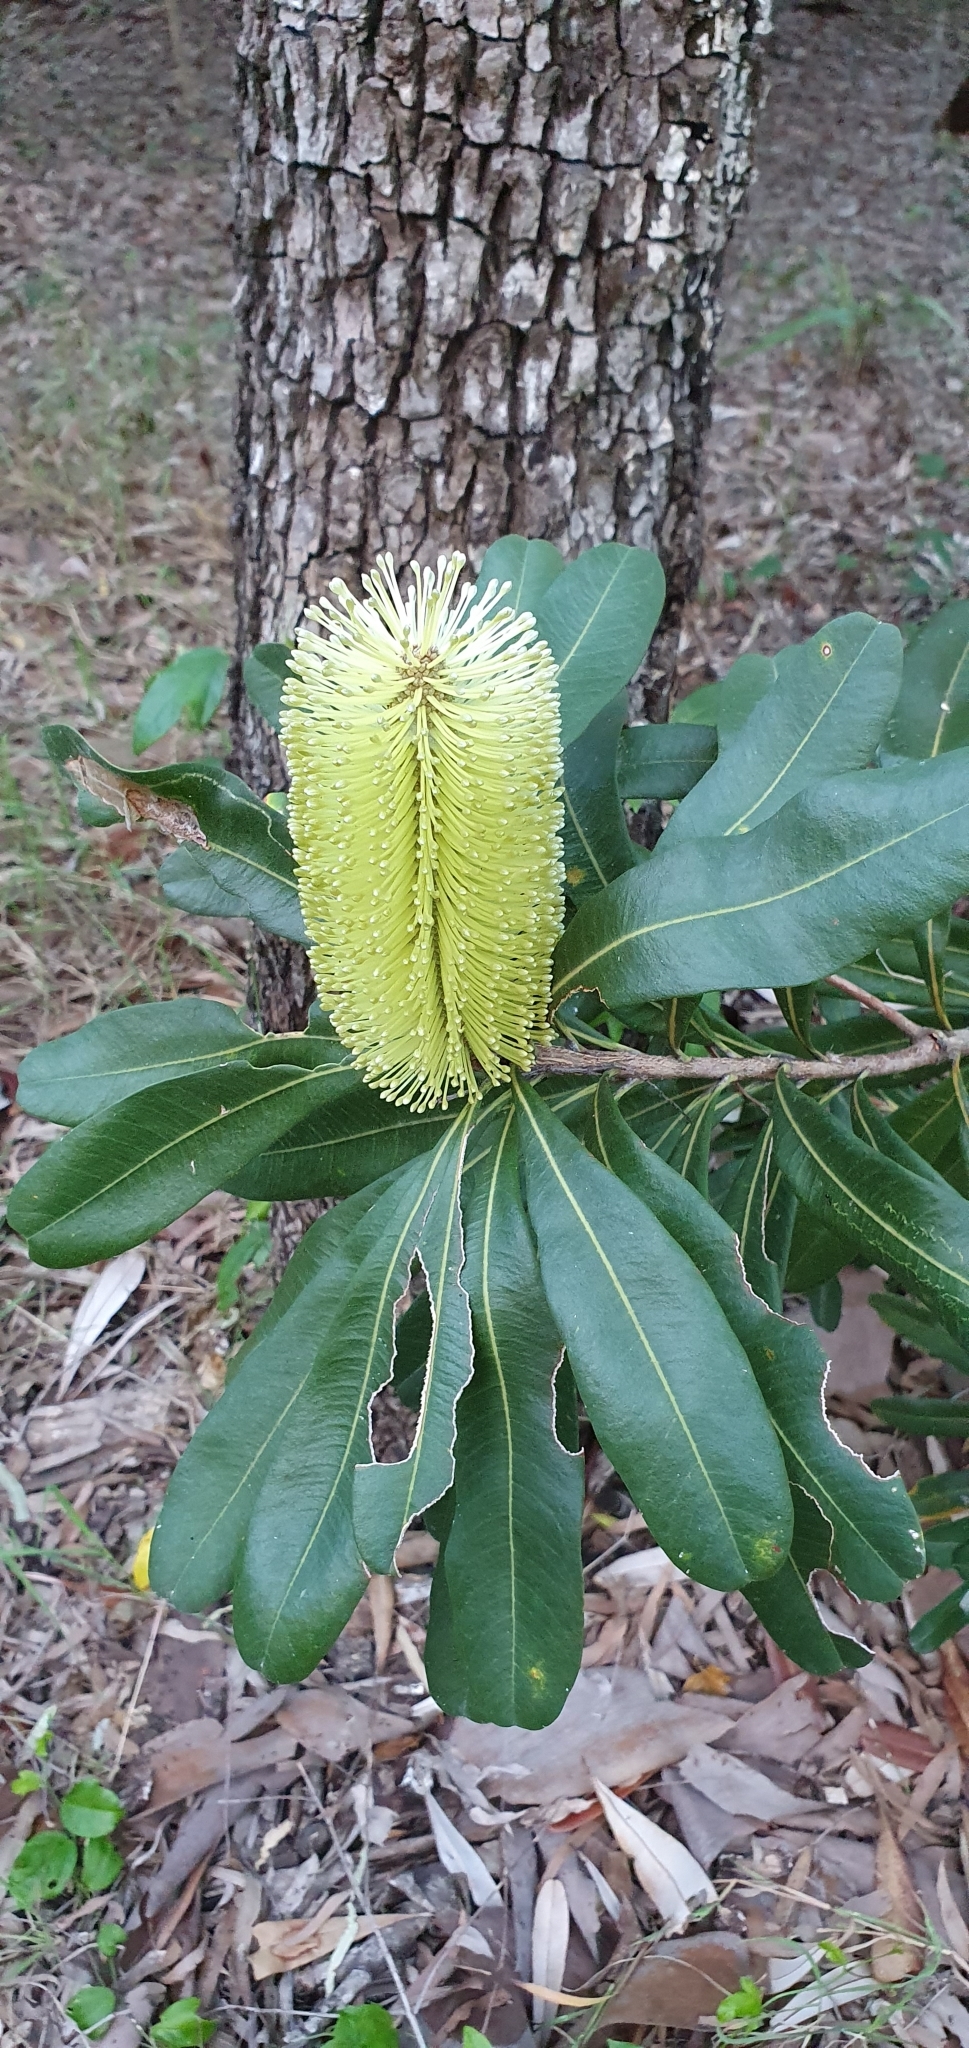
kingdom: Plantae
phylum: Tracheophyta
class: Magnoliopsida
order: Proteales
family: Proteaceae
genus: Banksia
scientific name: Banksia integrifolia
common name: White-honeysuckle
